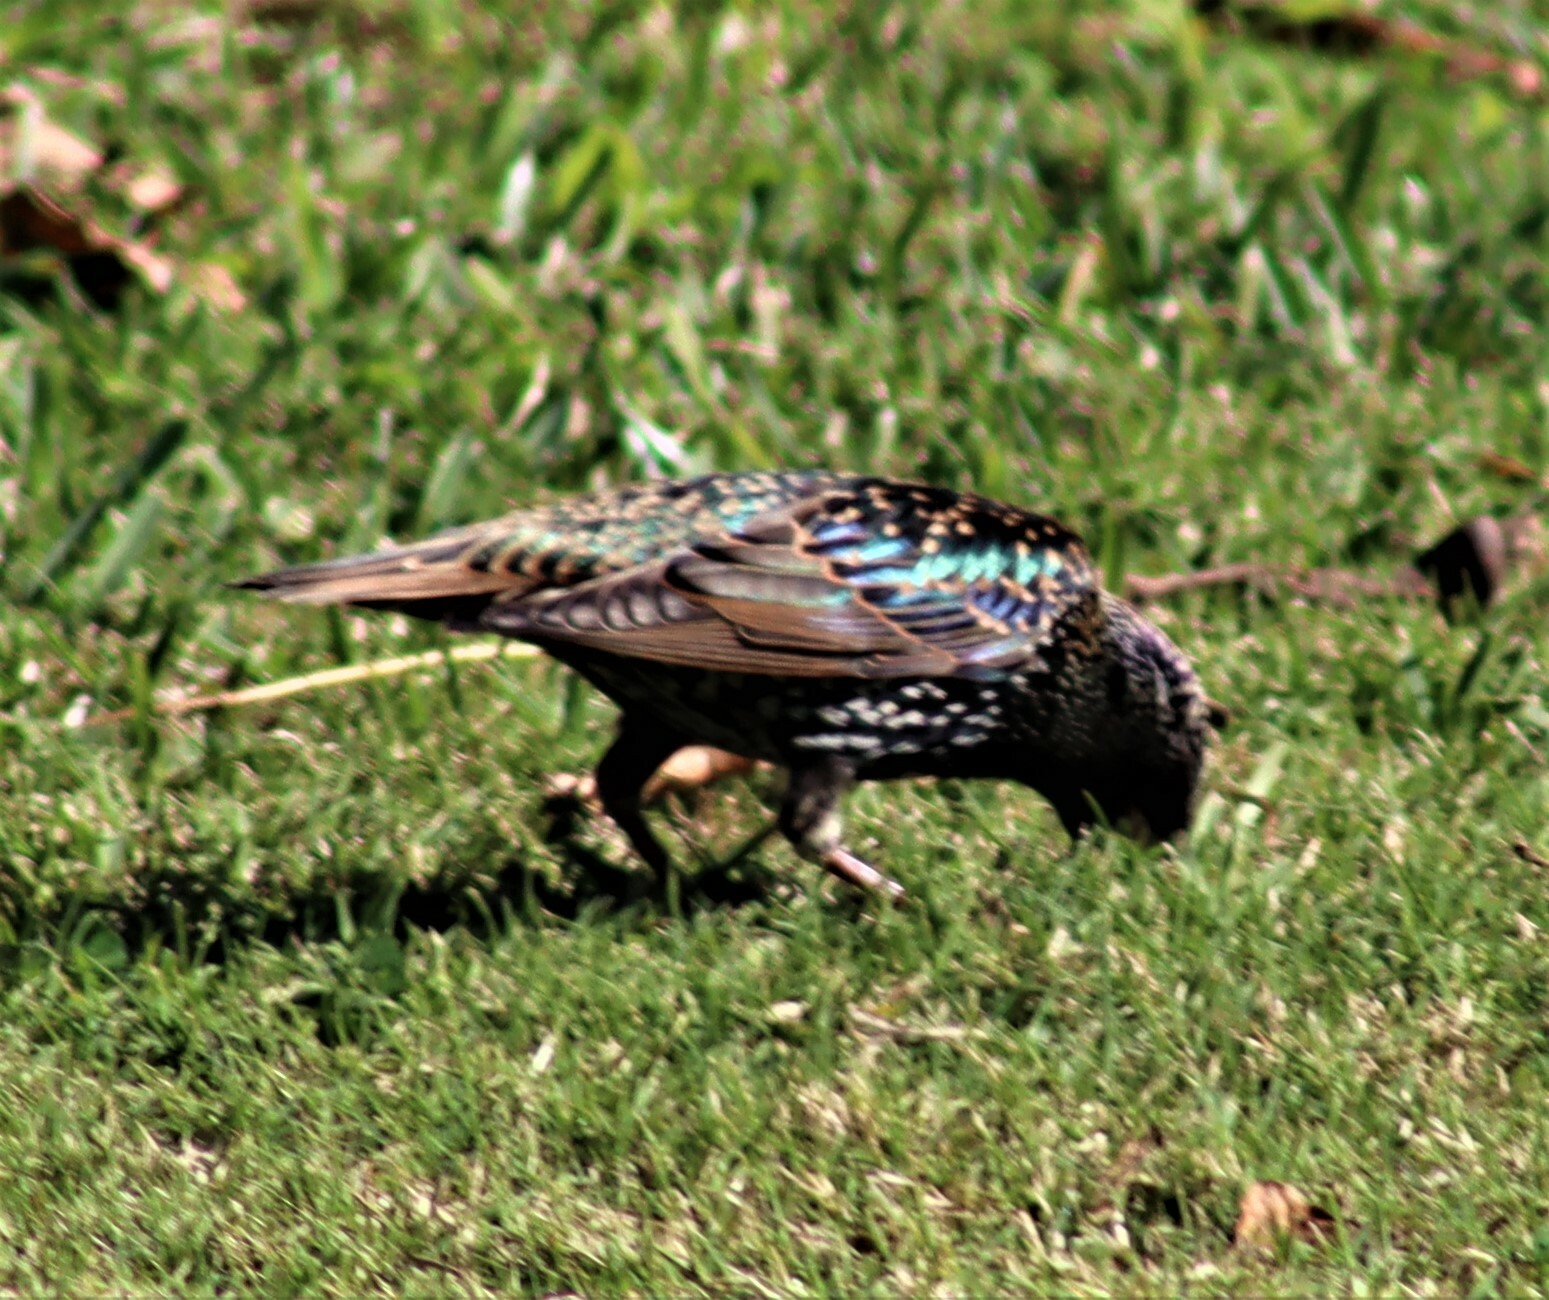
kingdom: Animalia
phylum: Chordata
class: Aves
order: Passeriformes
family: Sturnidae
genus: Sturnus
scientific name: Sturnus vulgaris
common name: Common starling
